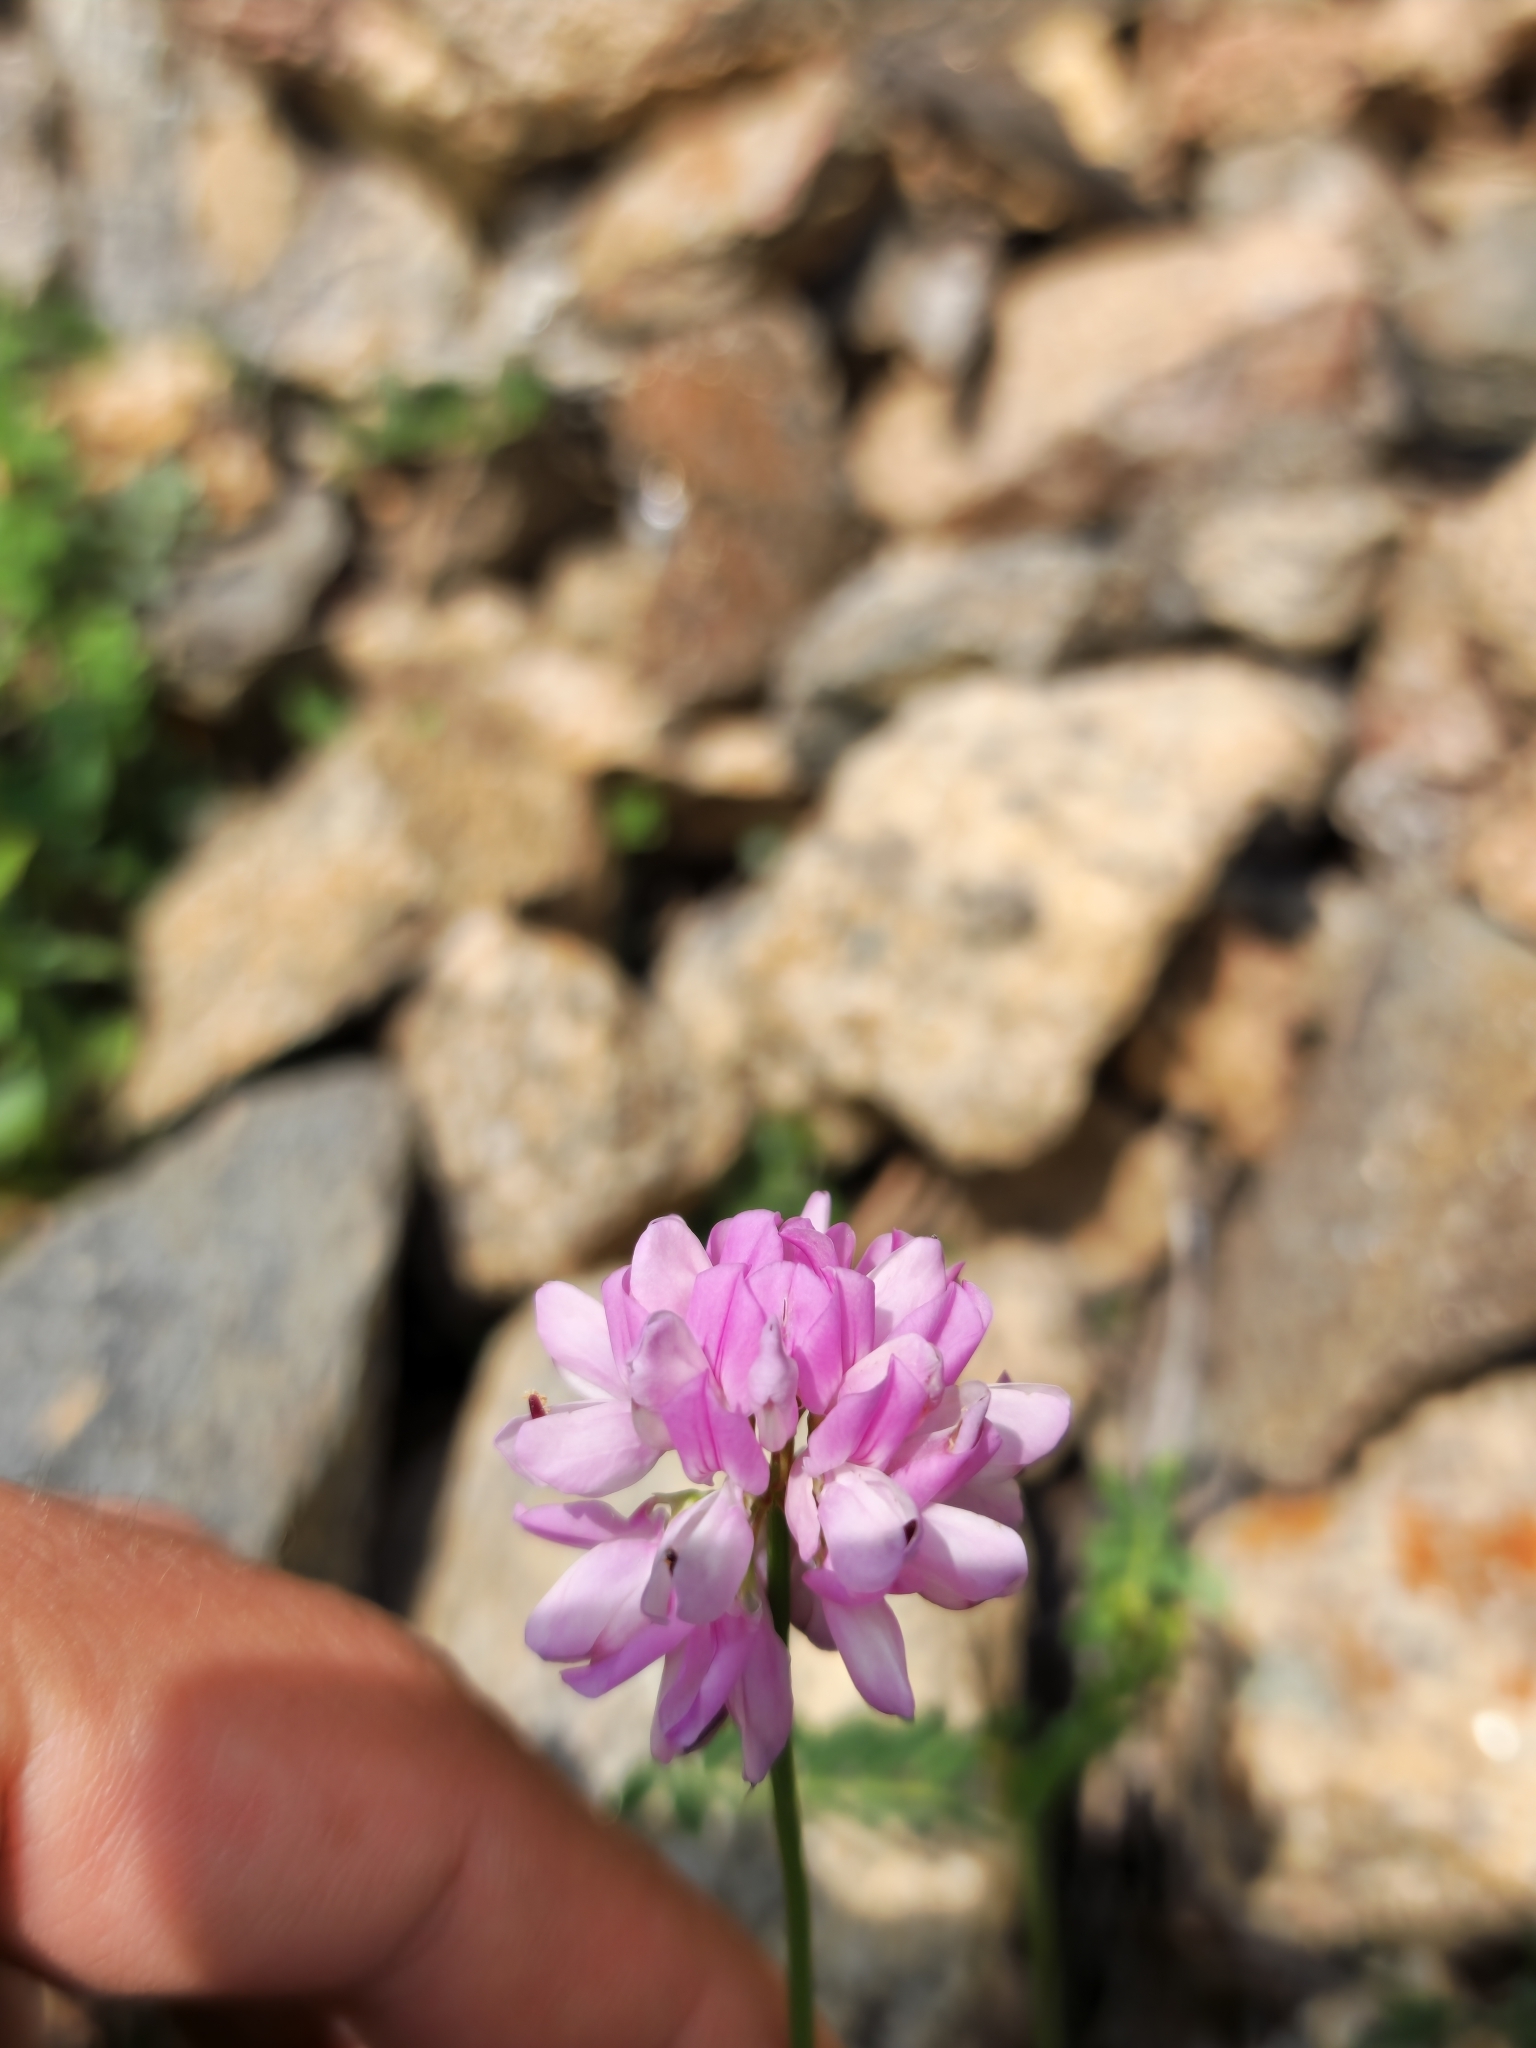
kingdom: Plantae
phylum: Tracheophyta
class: Magnoliopsida
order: Fabales
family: Fabaceae
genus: Coronilla
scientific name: Coronilla varia
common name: Crownvetch
